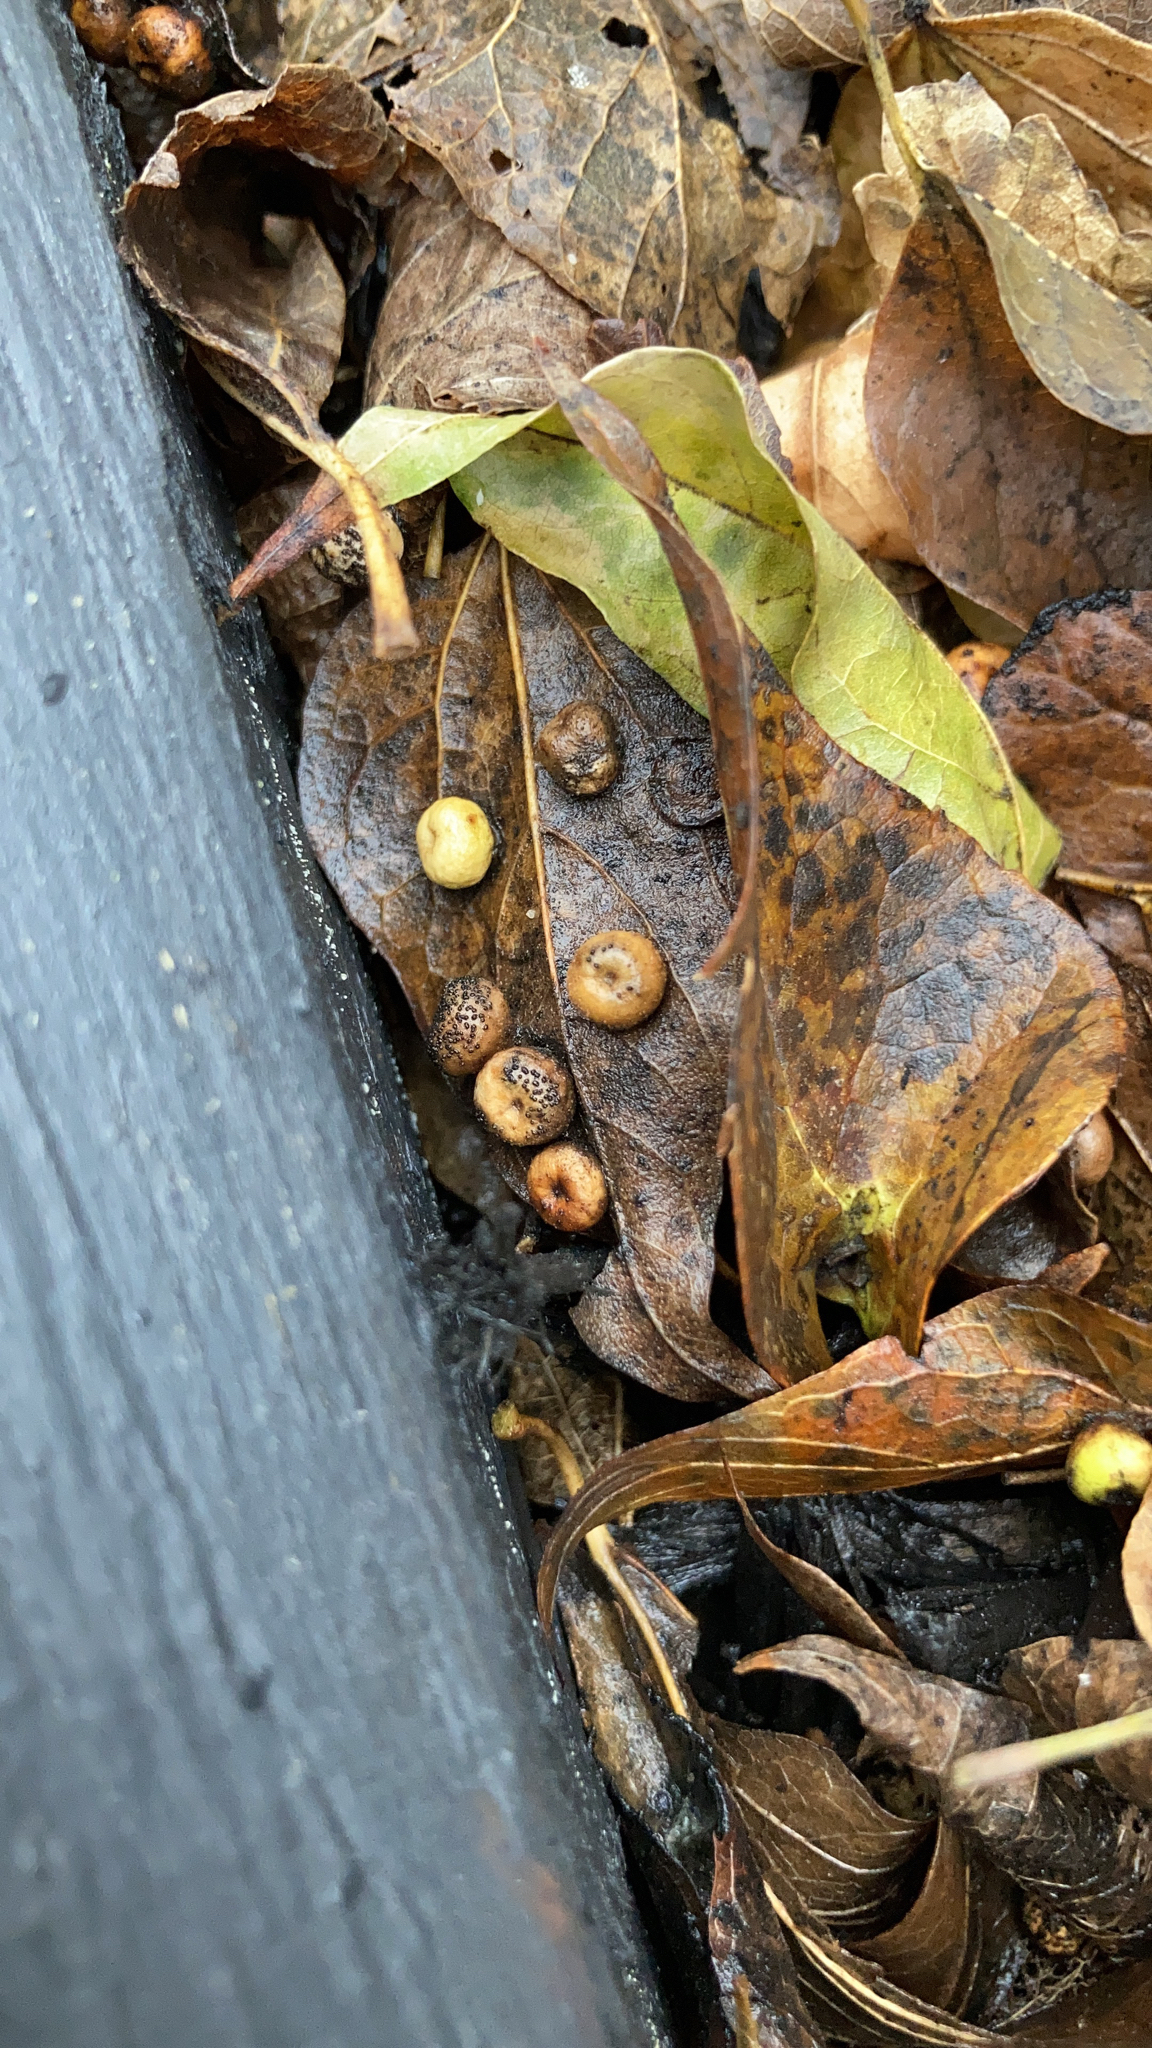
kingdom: Animalia
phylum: Arthropoda
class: Insecta
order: Hemiptera
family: Aphalaridae
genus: Pachypsylla
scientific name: Pachypsylla celtidismamma
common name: Hackberry nipplegall psyllid
